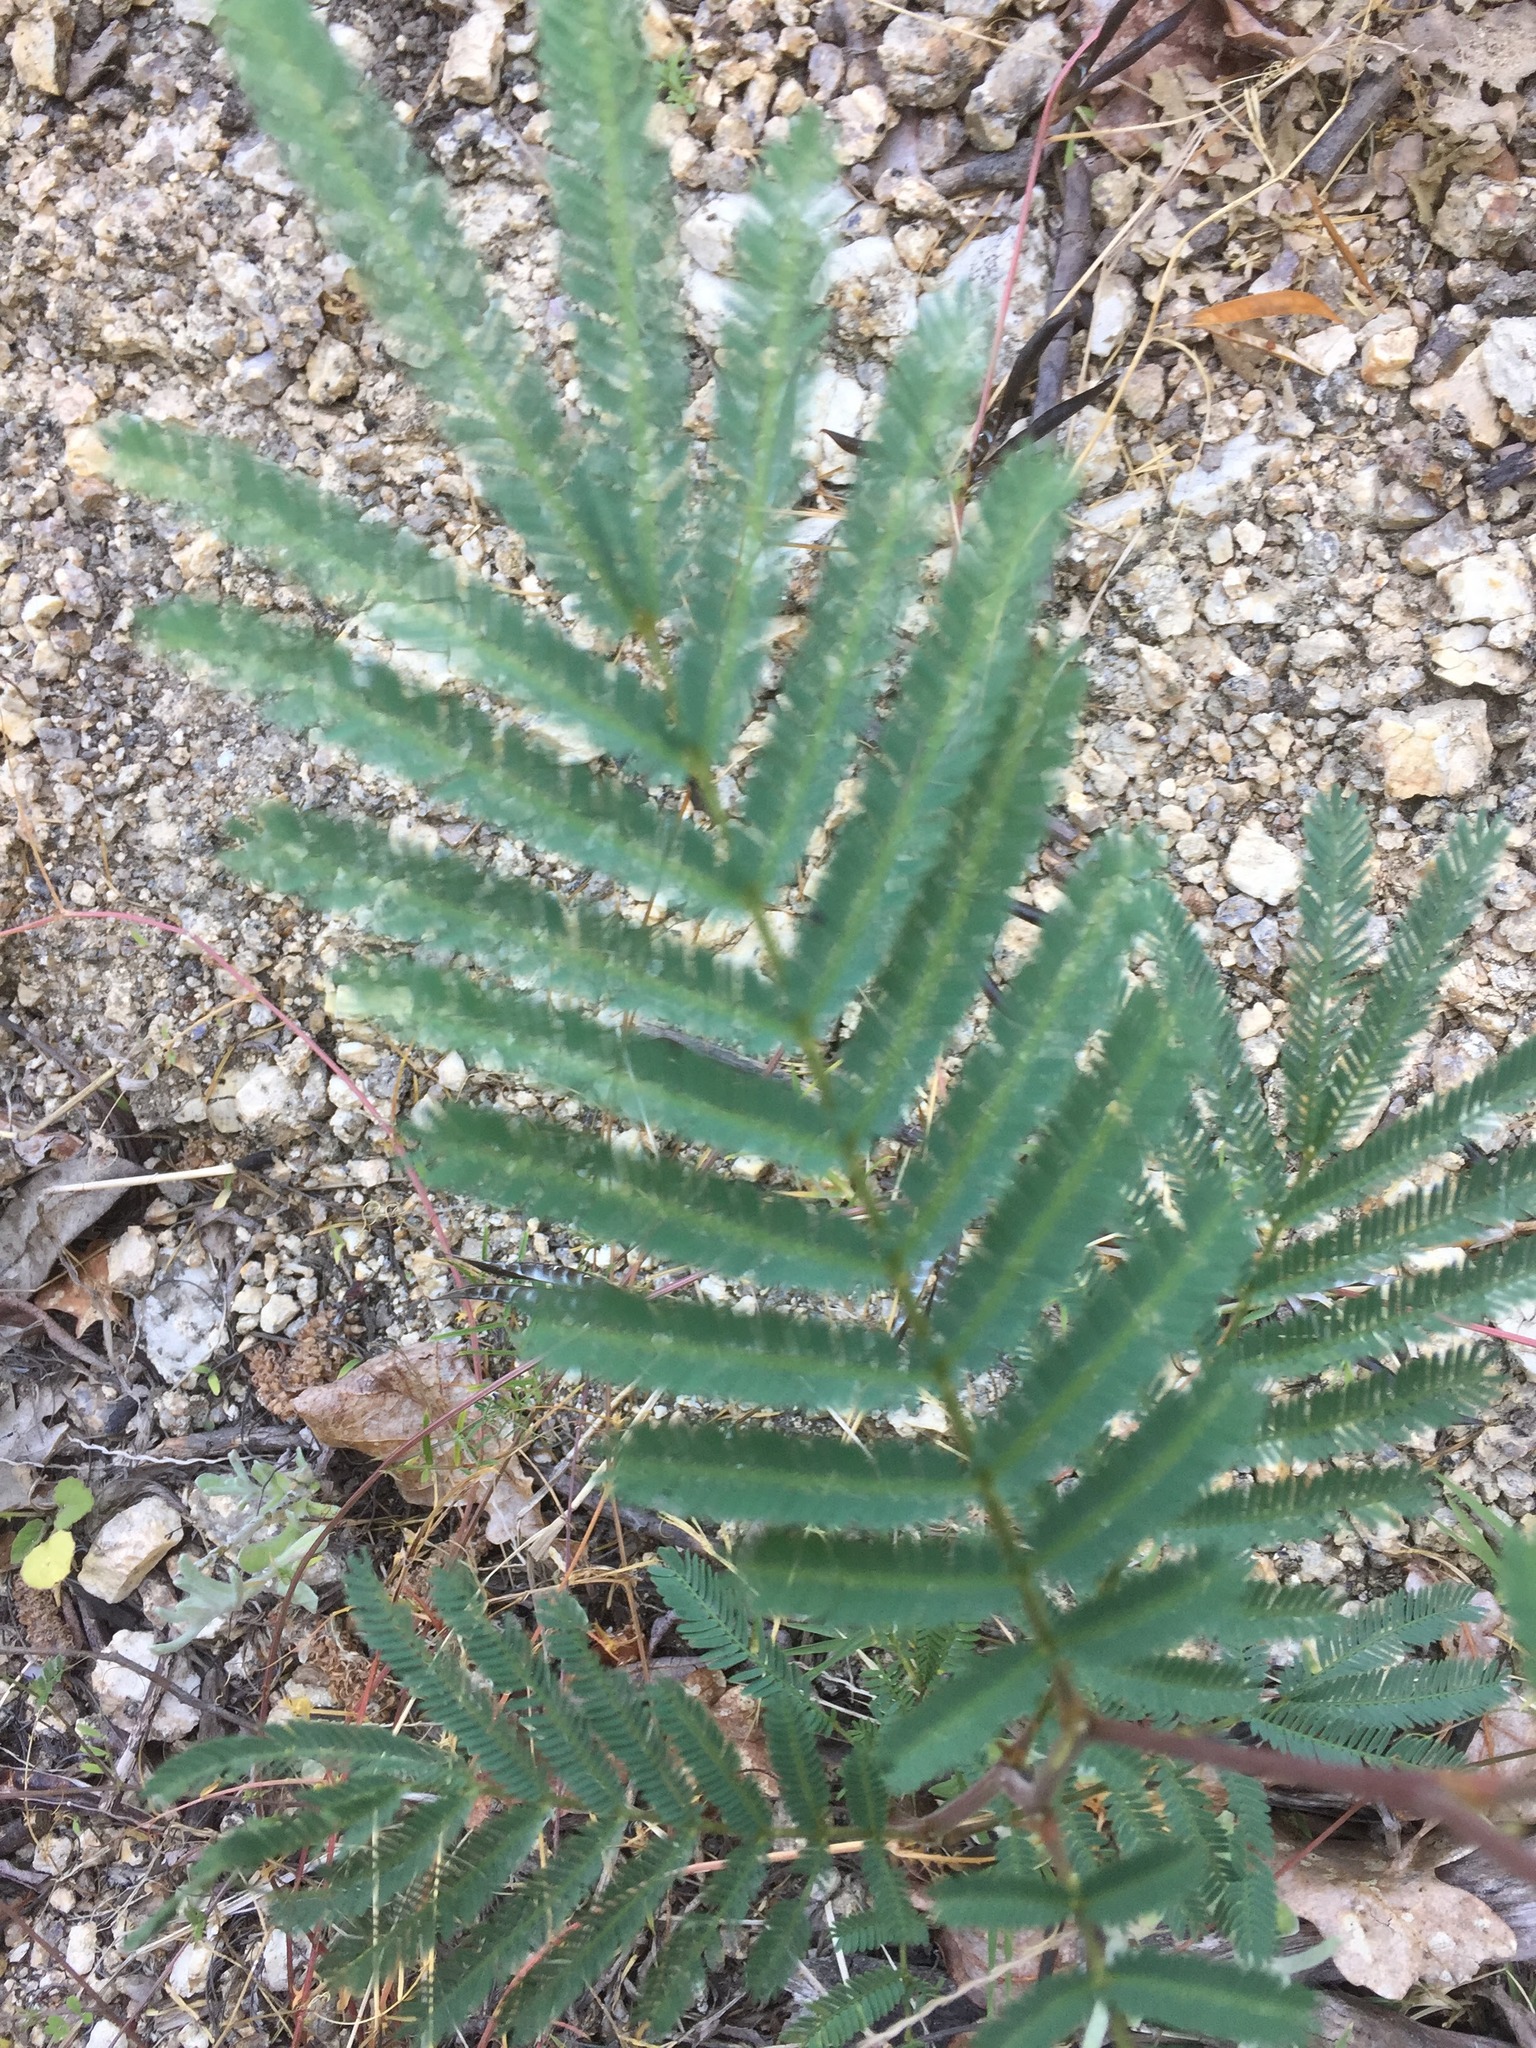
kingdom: Plantae
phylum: Tracheophyta
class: Magnoliopsida
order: Fabales
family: Fabaceae
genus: Acacia
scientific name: Acacia dealbata
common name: Silver wattle
